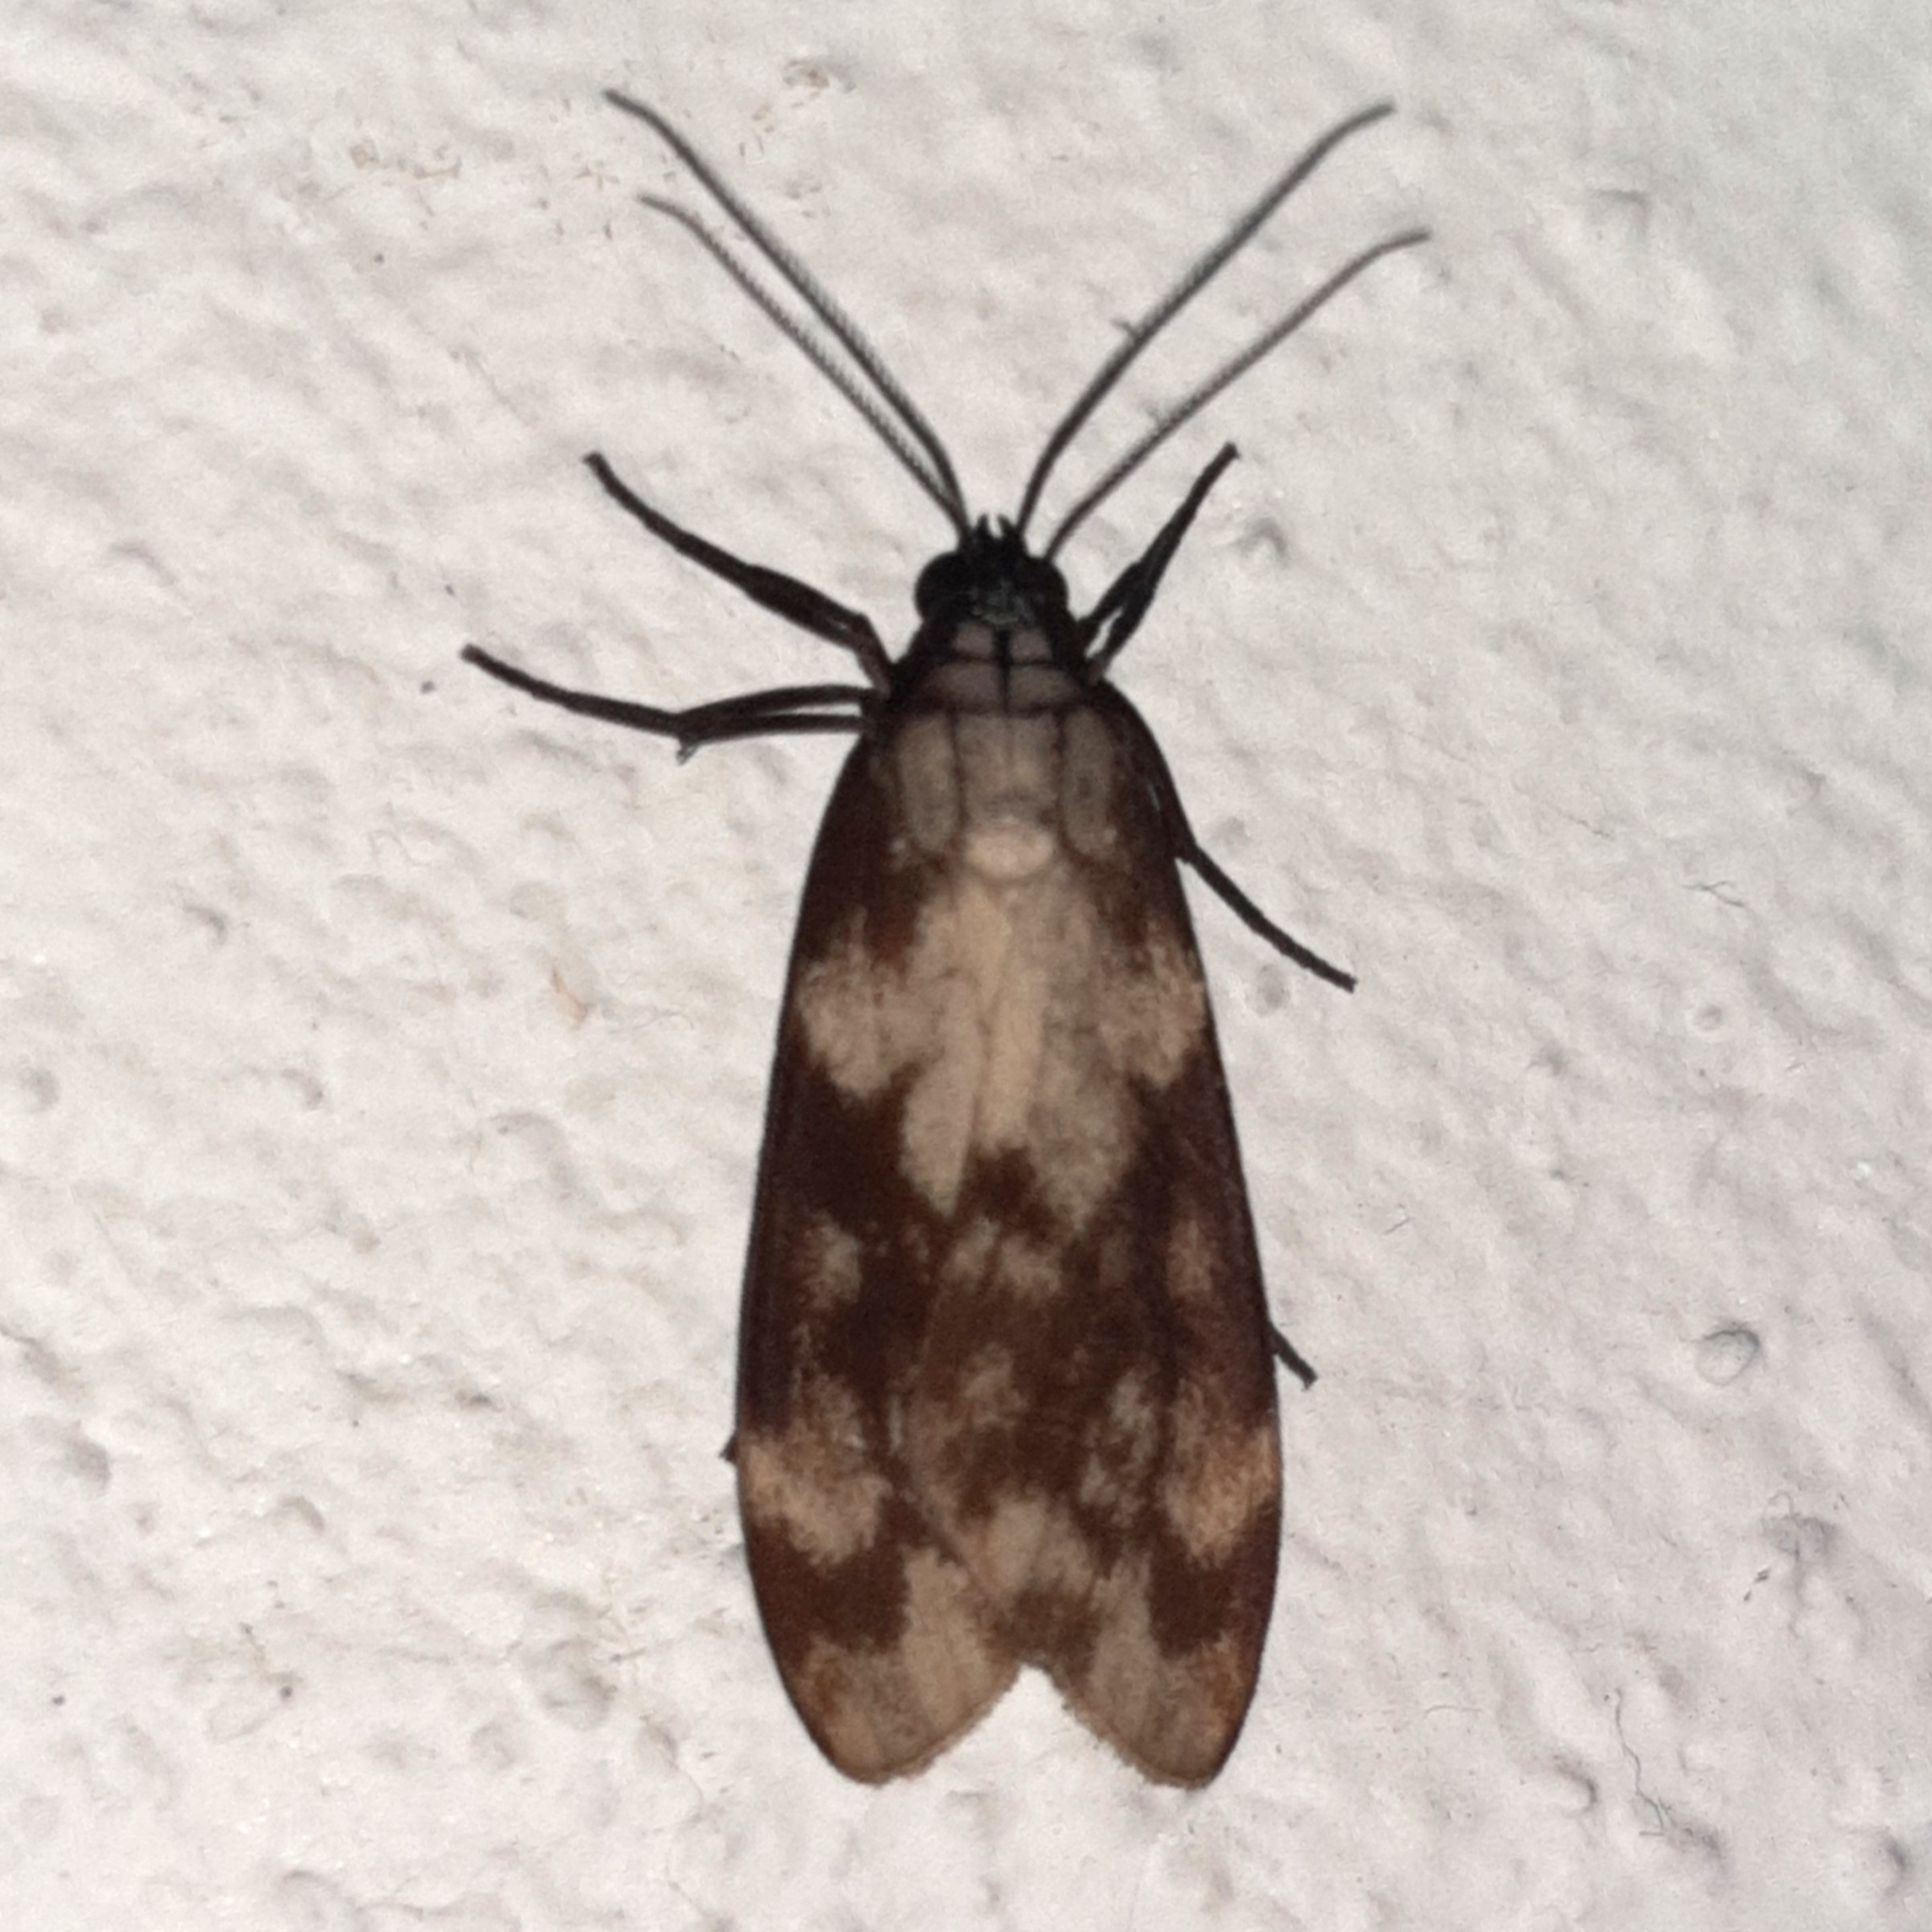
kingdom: Animalia
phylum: Arthropoda
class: Insecta
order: Lepidoptera
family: Erebidae
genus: Eucereon
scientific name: Eucereon discolor
